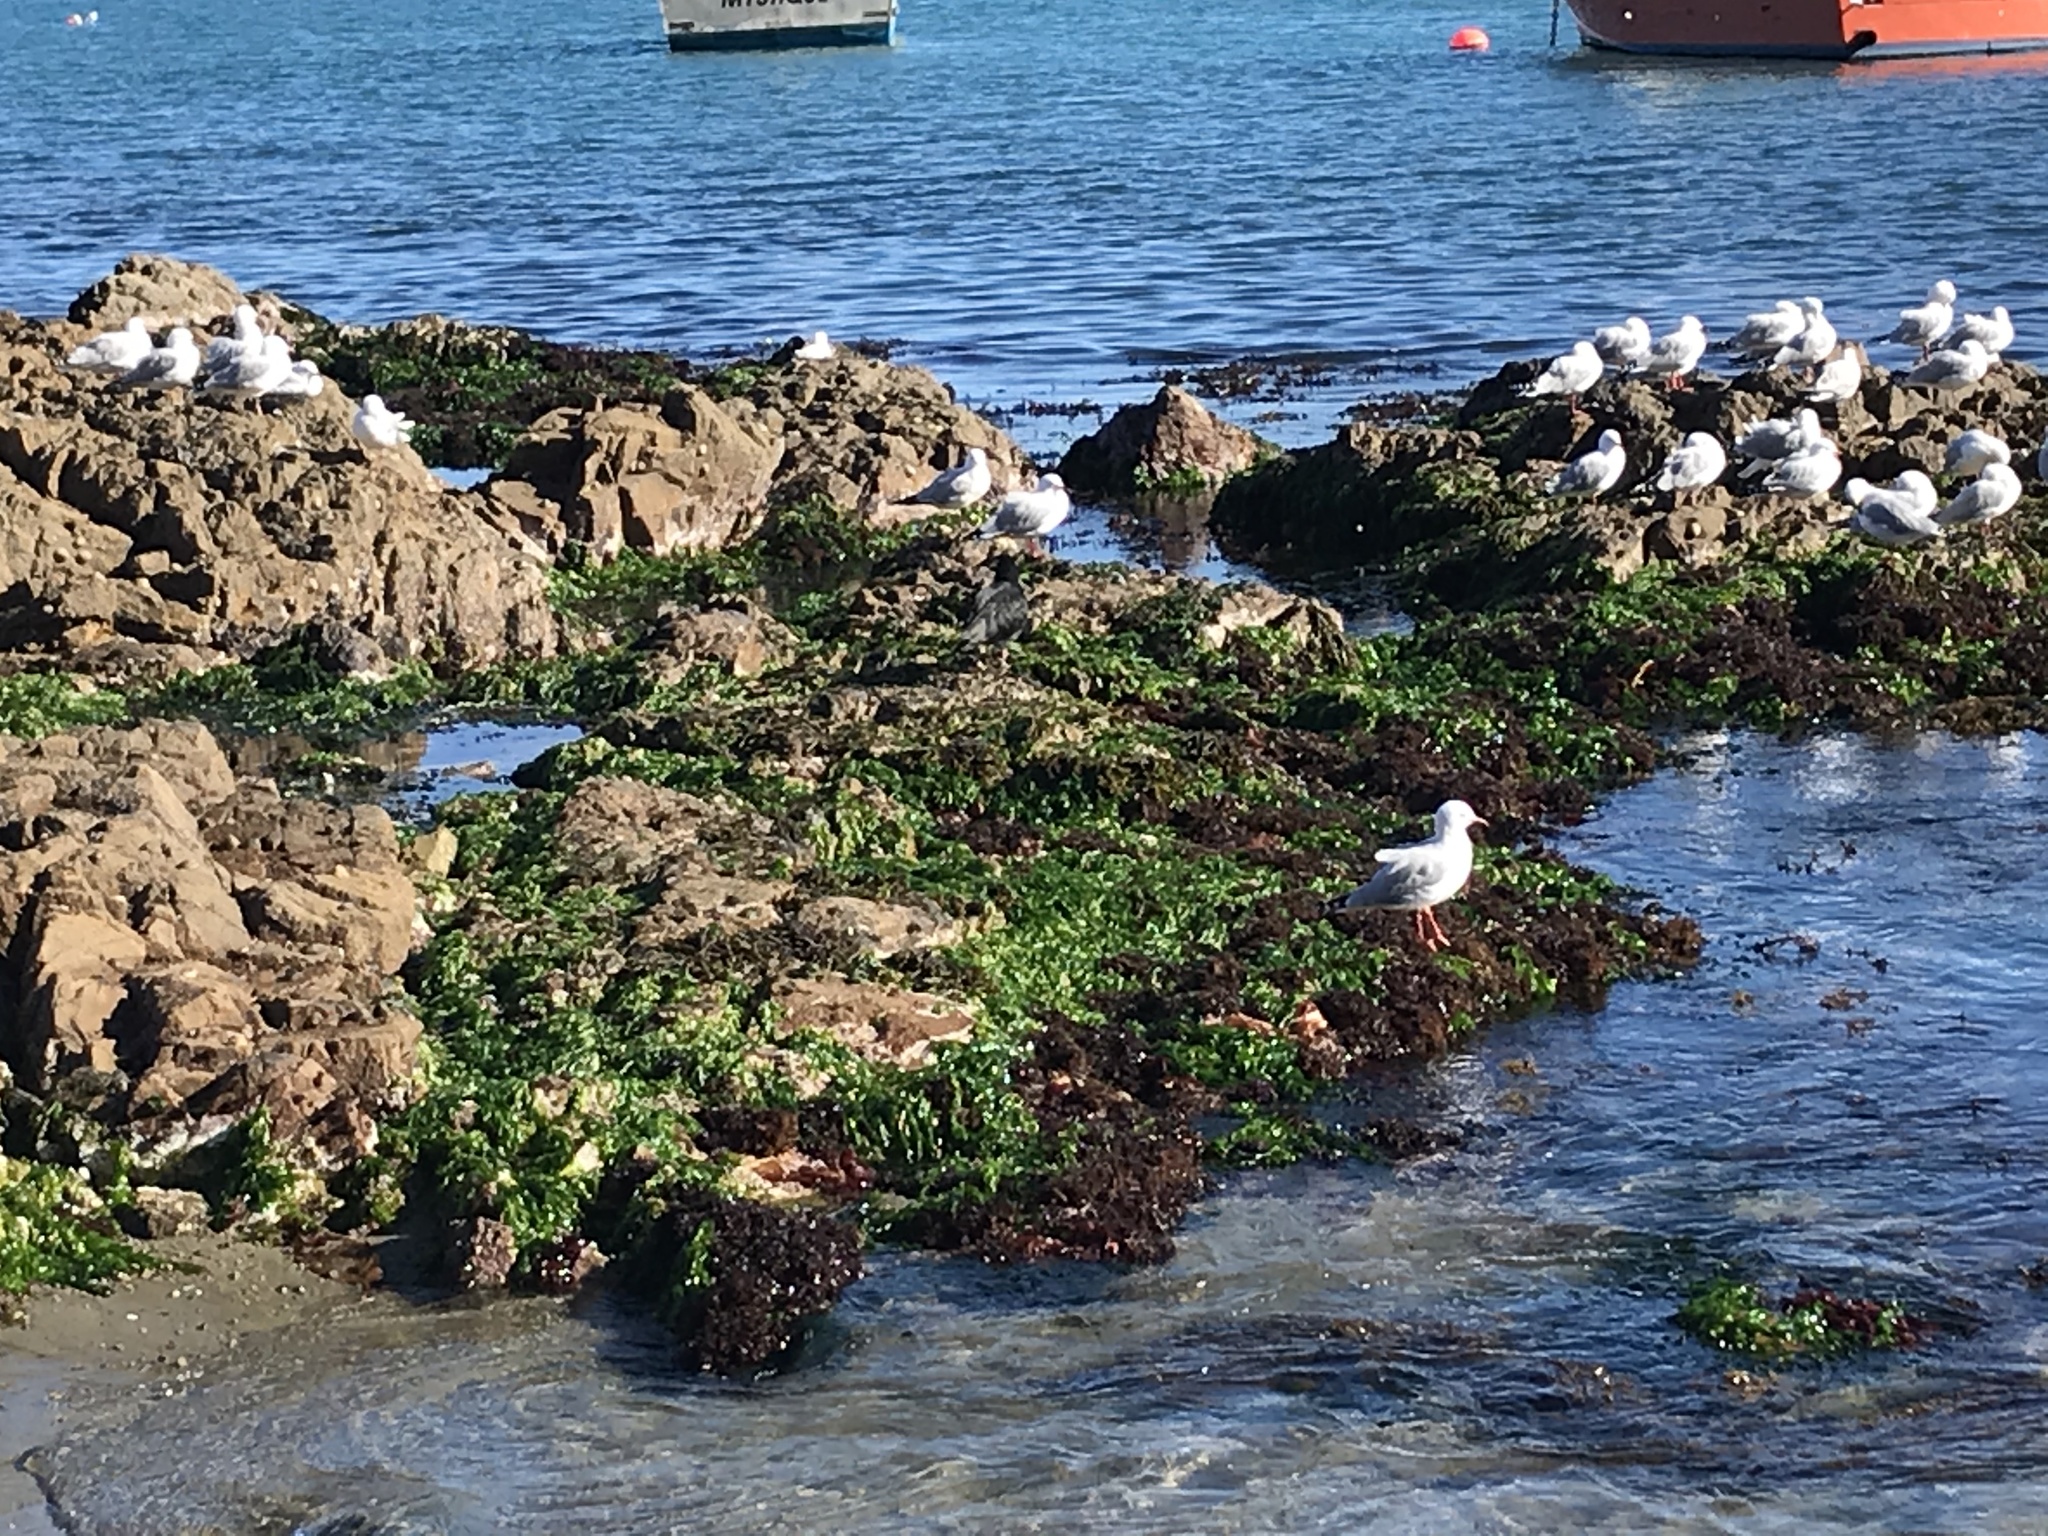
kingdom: Animalia
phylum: Chordata
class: Aves
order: Charadriiformes
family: Haematopodidae
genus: Haematopus
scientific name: Haematopus unicolor
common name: Variable oystercatcher
